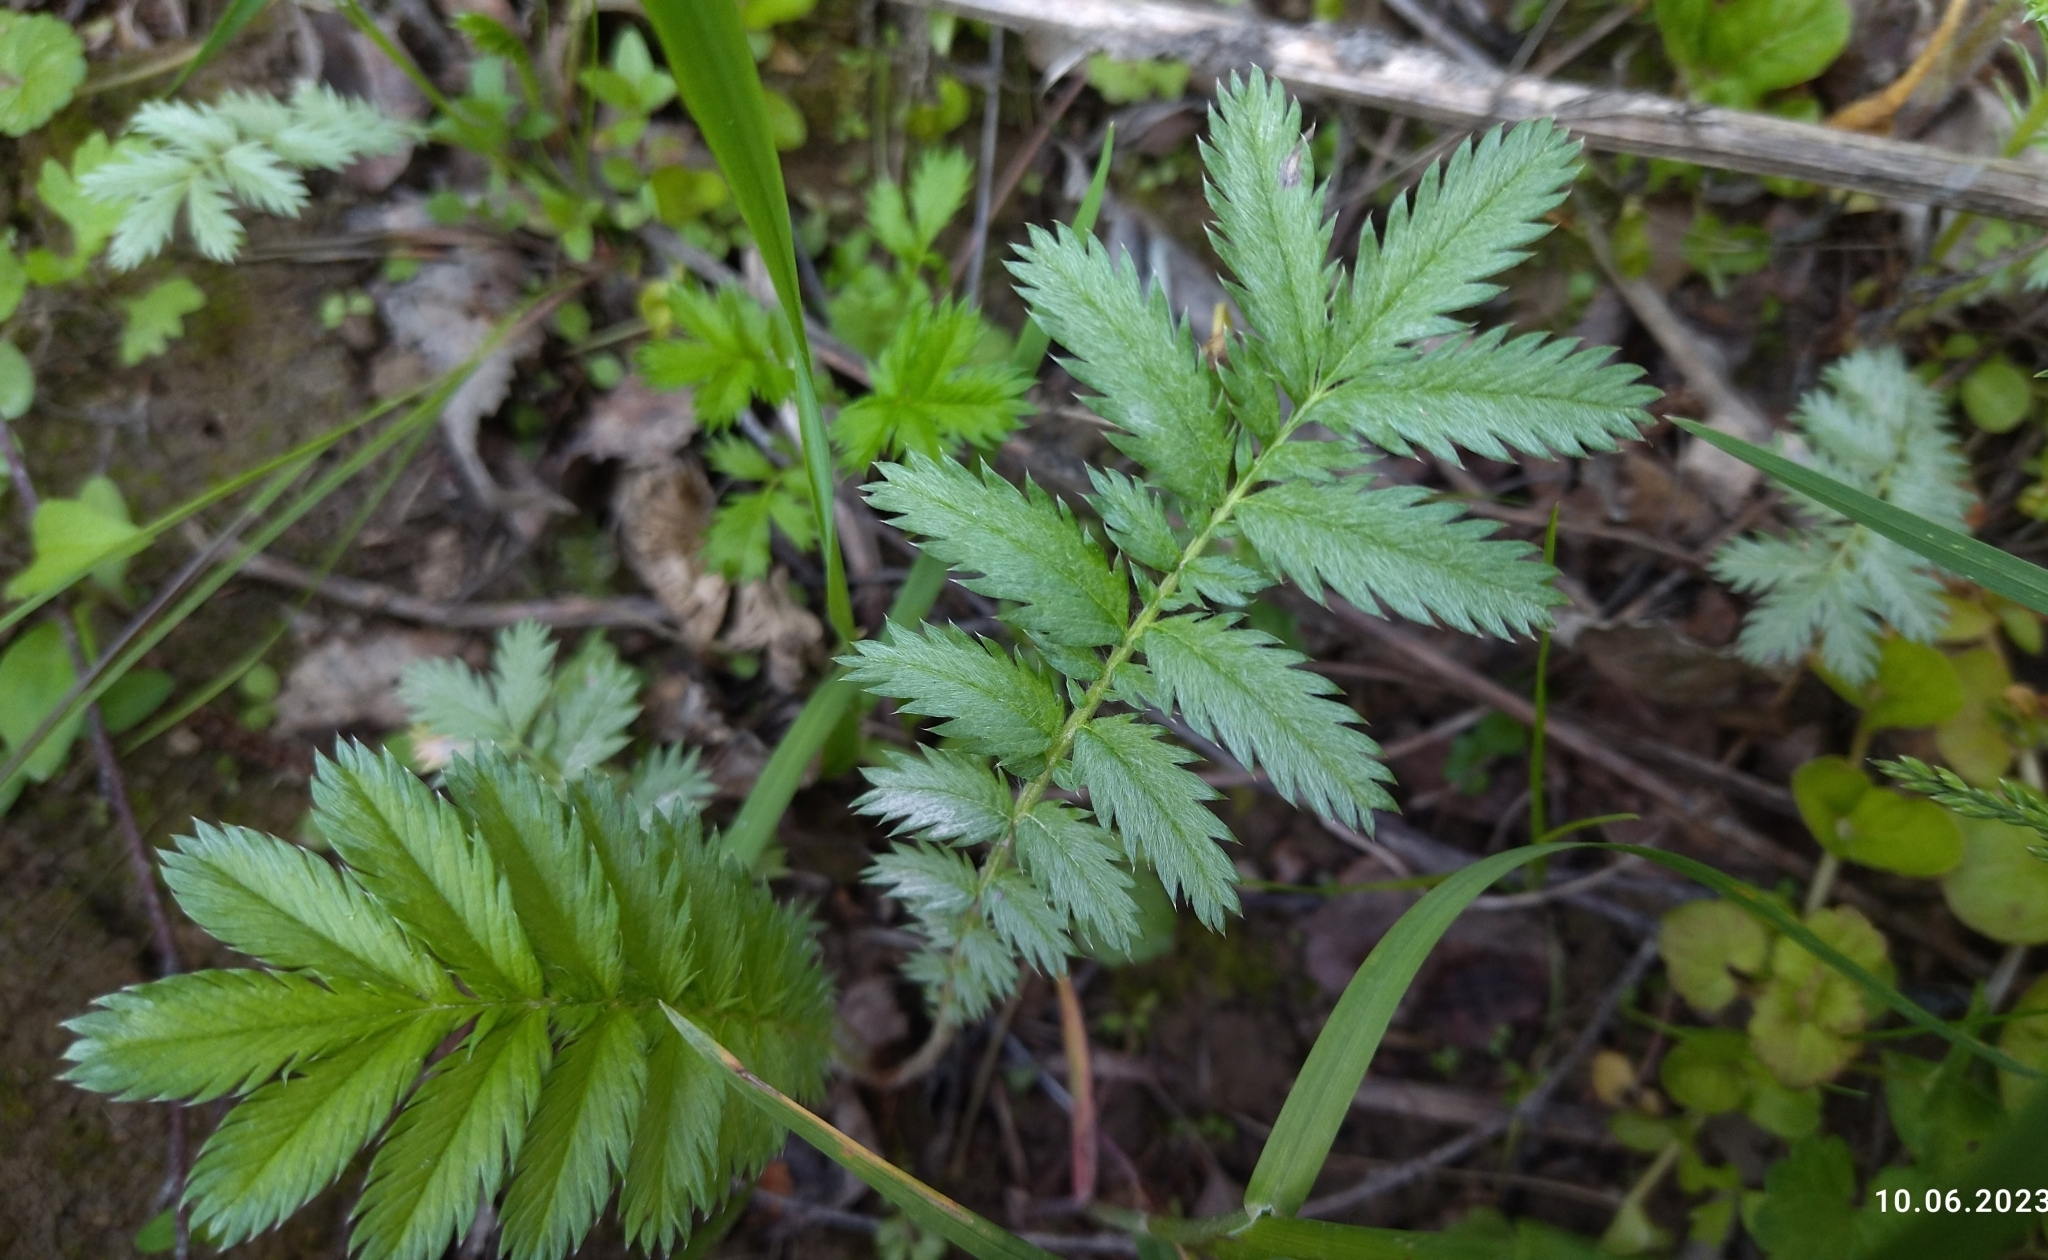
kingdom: Plantae
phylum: Tracheophyta
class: Magnoliopsida
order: Rosales
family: Rosaceae
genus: Argentina
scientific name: Argentina anserina
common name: Common silverweed
